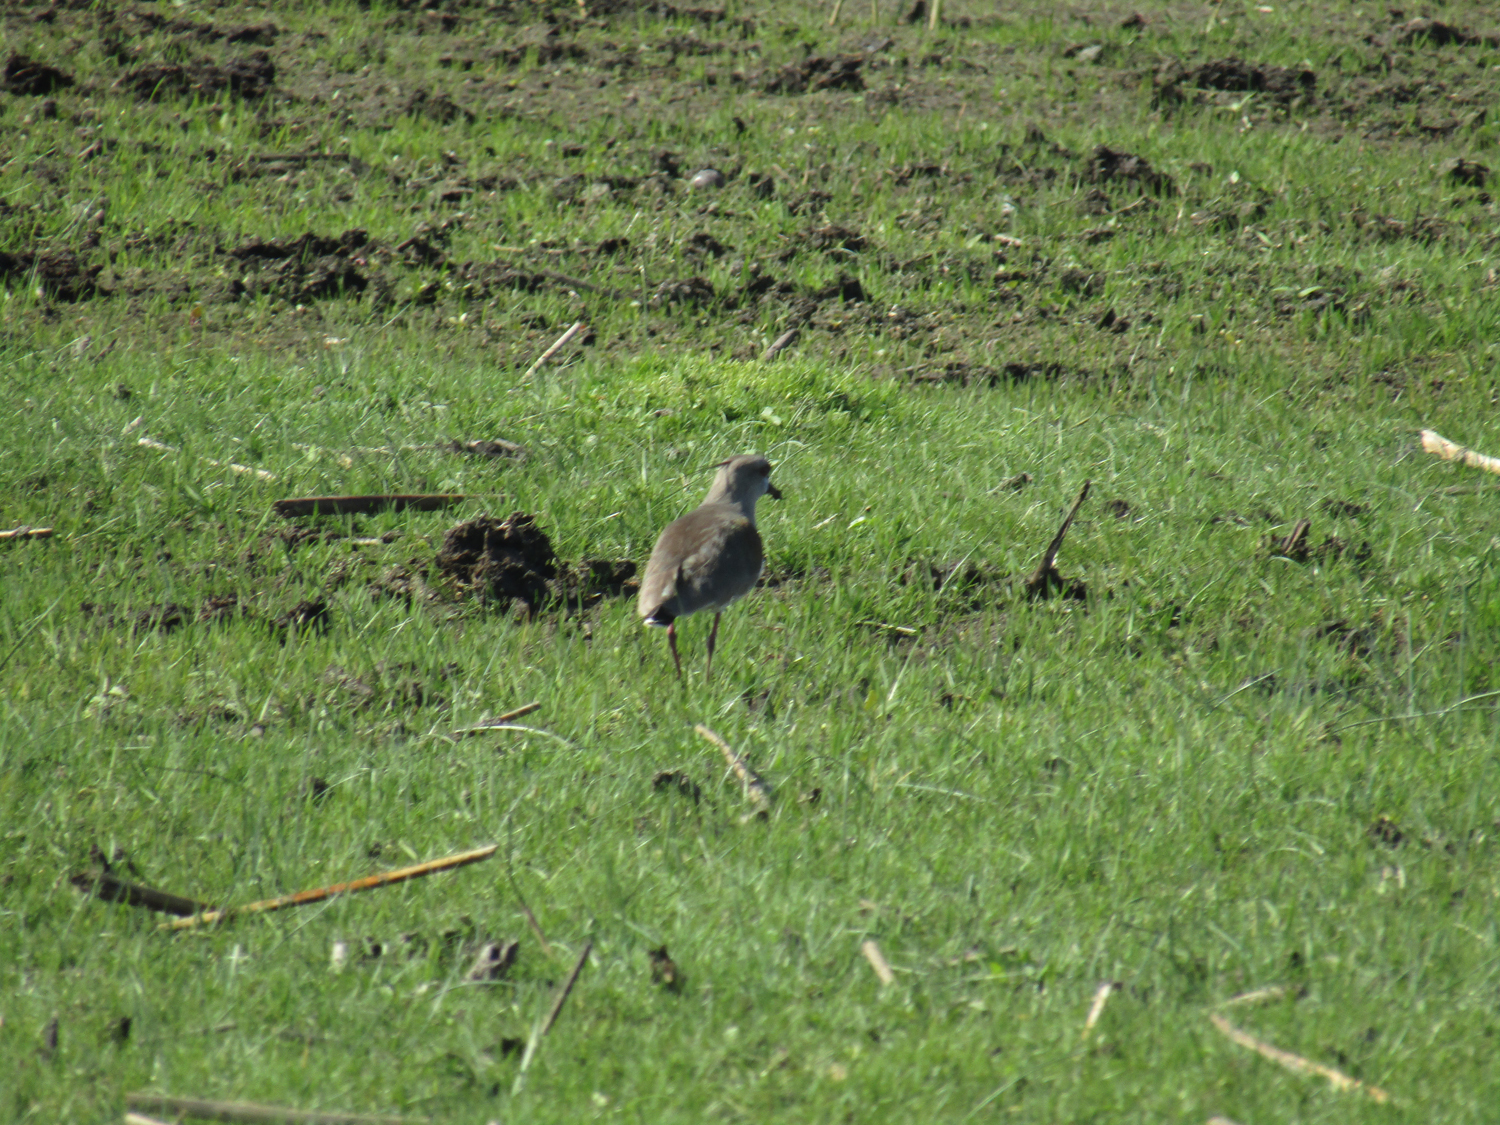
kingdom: Animalia
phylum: Chordata
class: Aves
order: Charadriiformes
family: Charadriidae
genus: Vanellus
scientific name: Vanellus chilensis
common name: Southern lapwing
